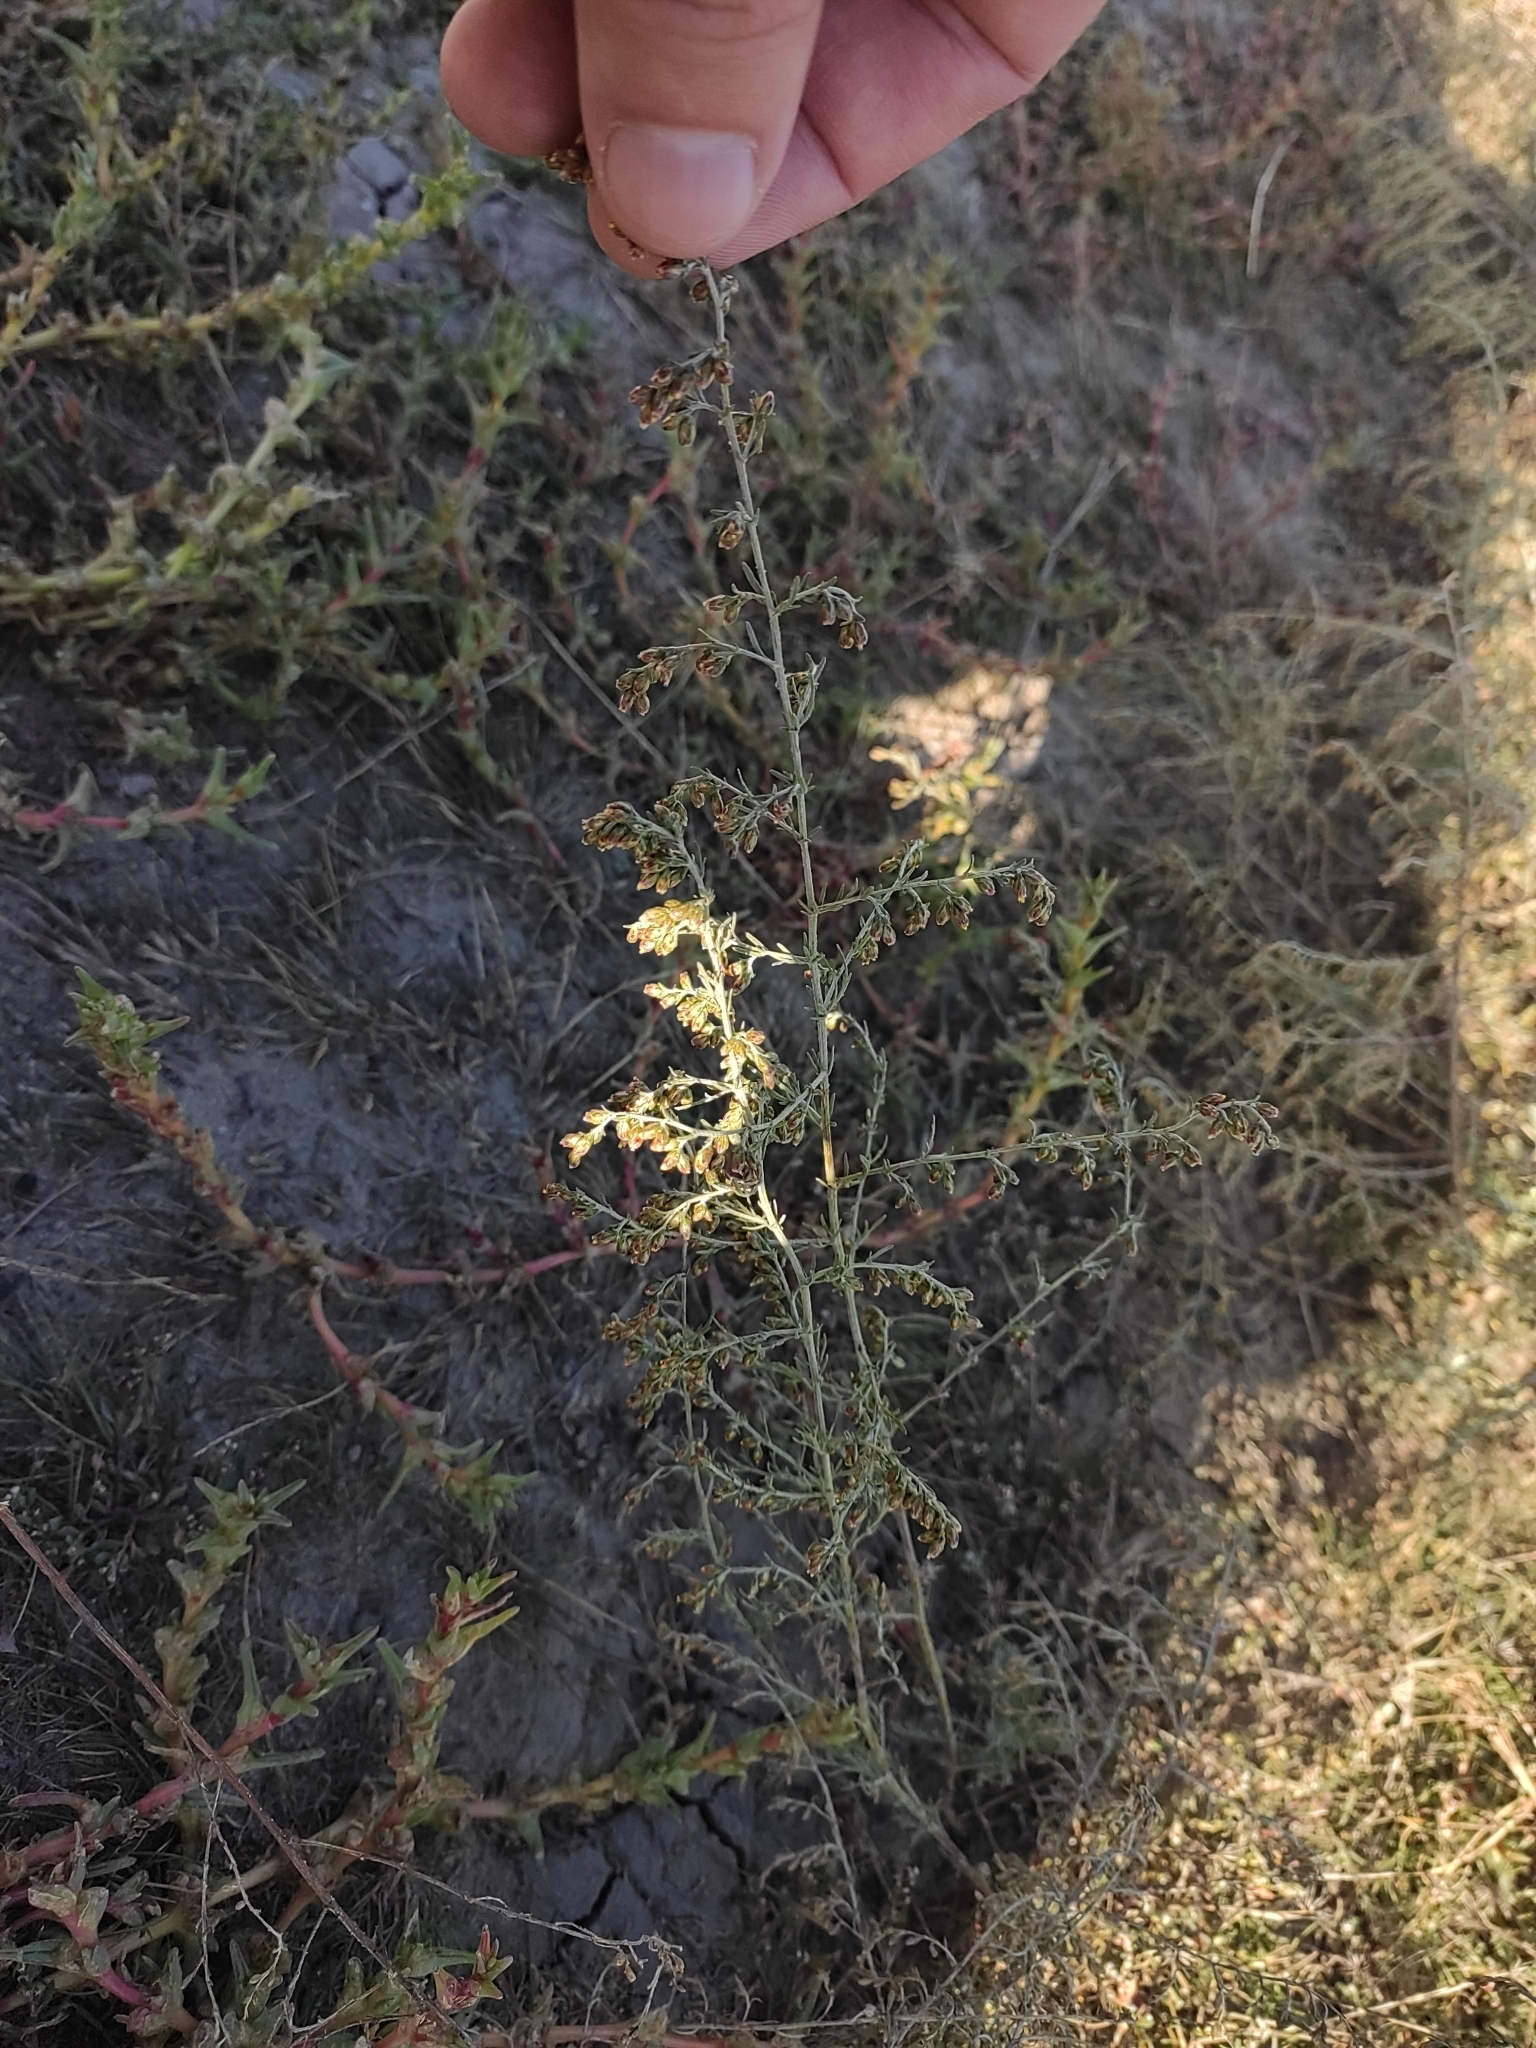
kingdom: Plantae
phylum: Tracheophyta
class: Magnoliopsida
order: Asterales
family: Asteraceae
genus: Artemisia
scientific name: Artemisia santonicum
